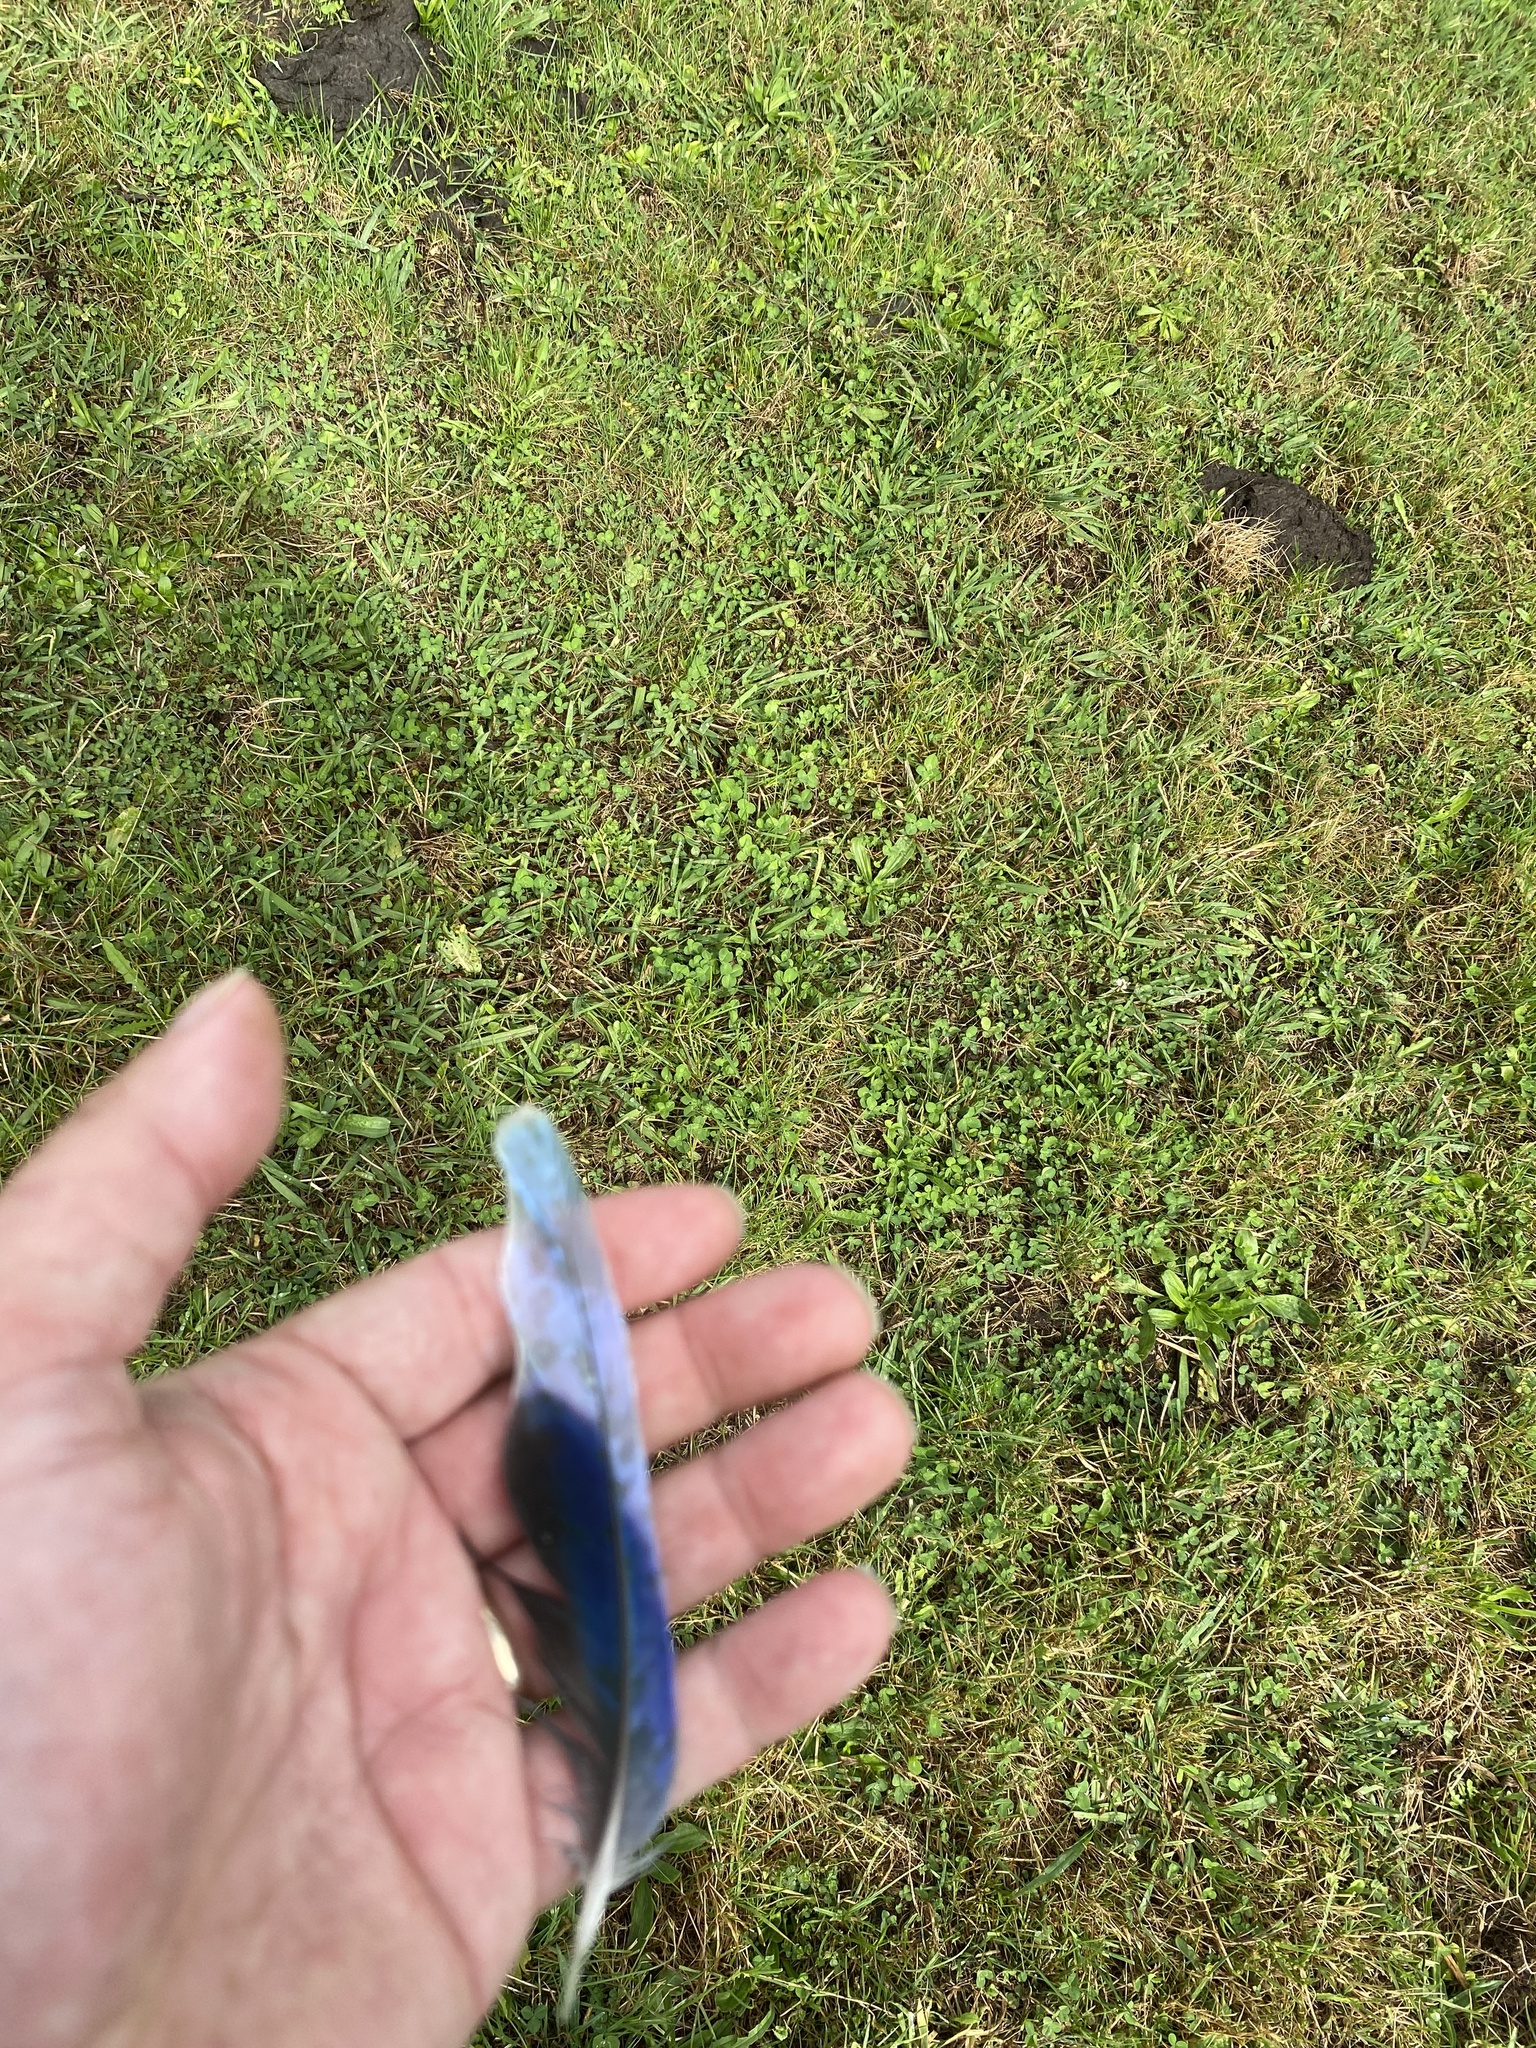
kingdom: Animalia
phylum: Chordata
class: Aves
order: Psittaciformes
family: Psittacidae
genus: Platycercus
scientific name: Platycercus eximius
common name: Eastern rosella
